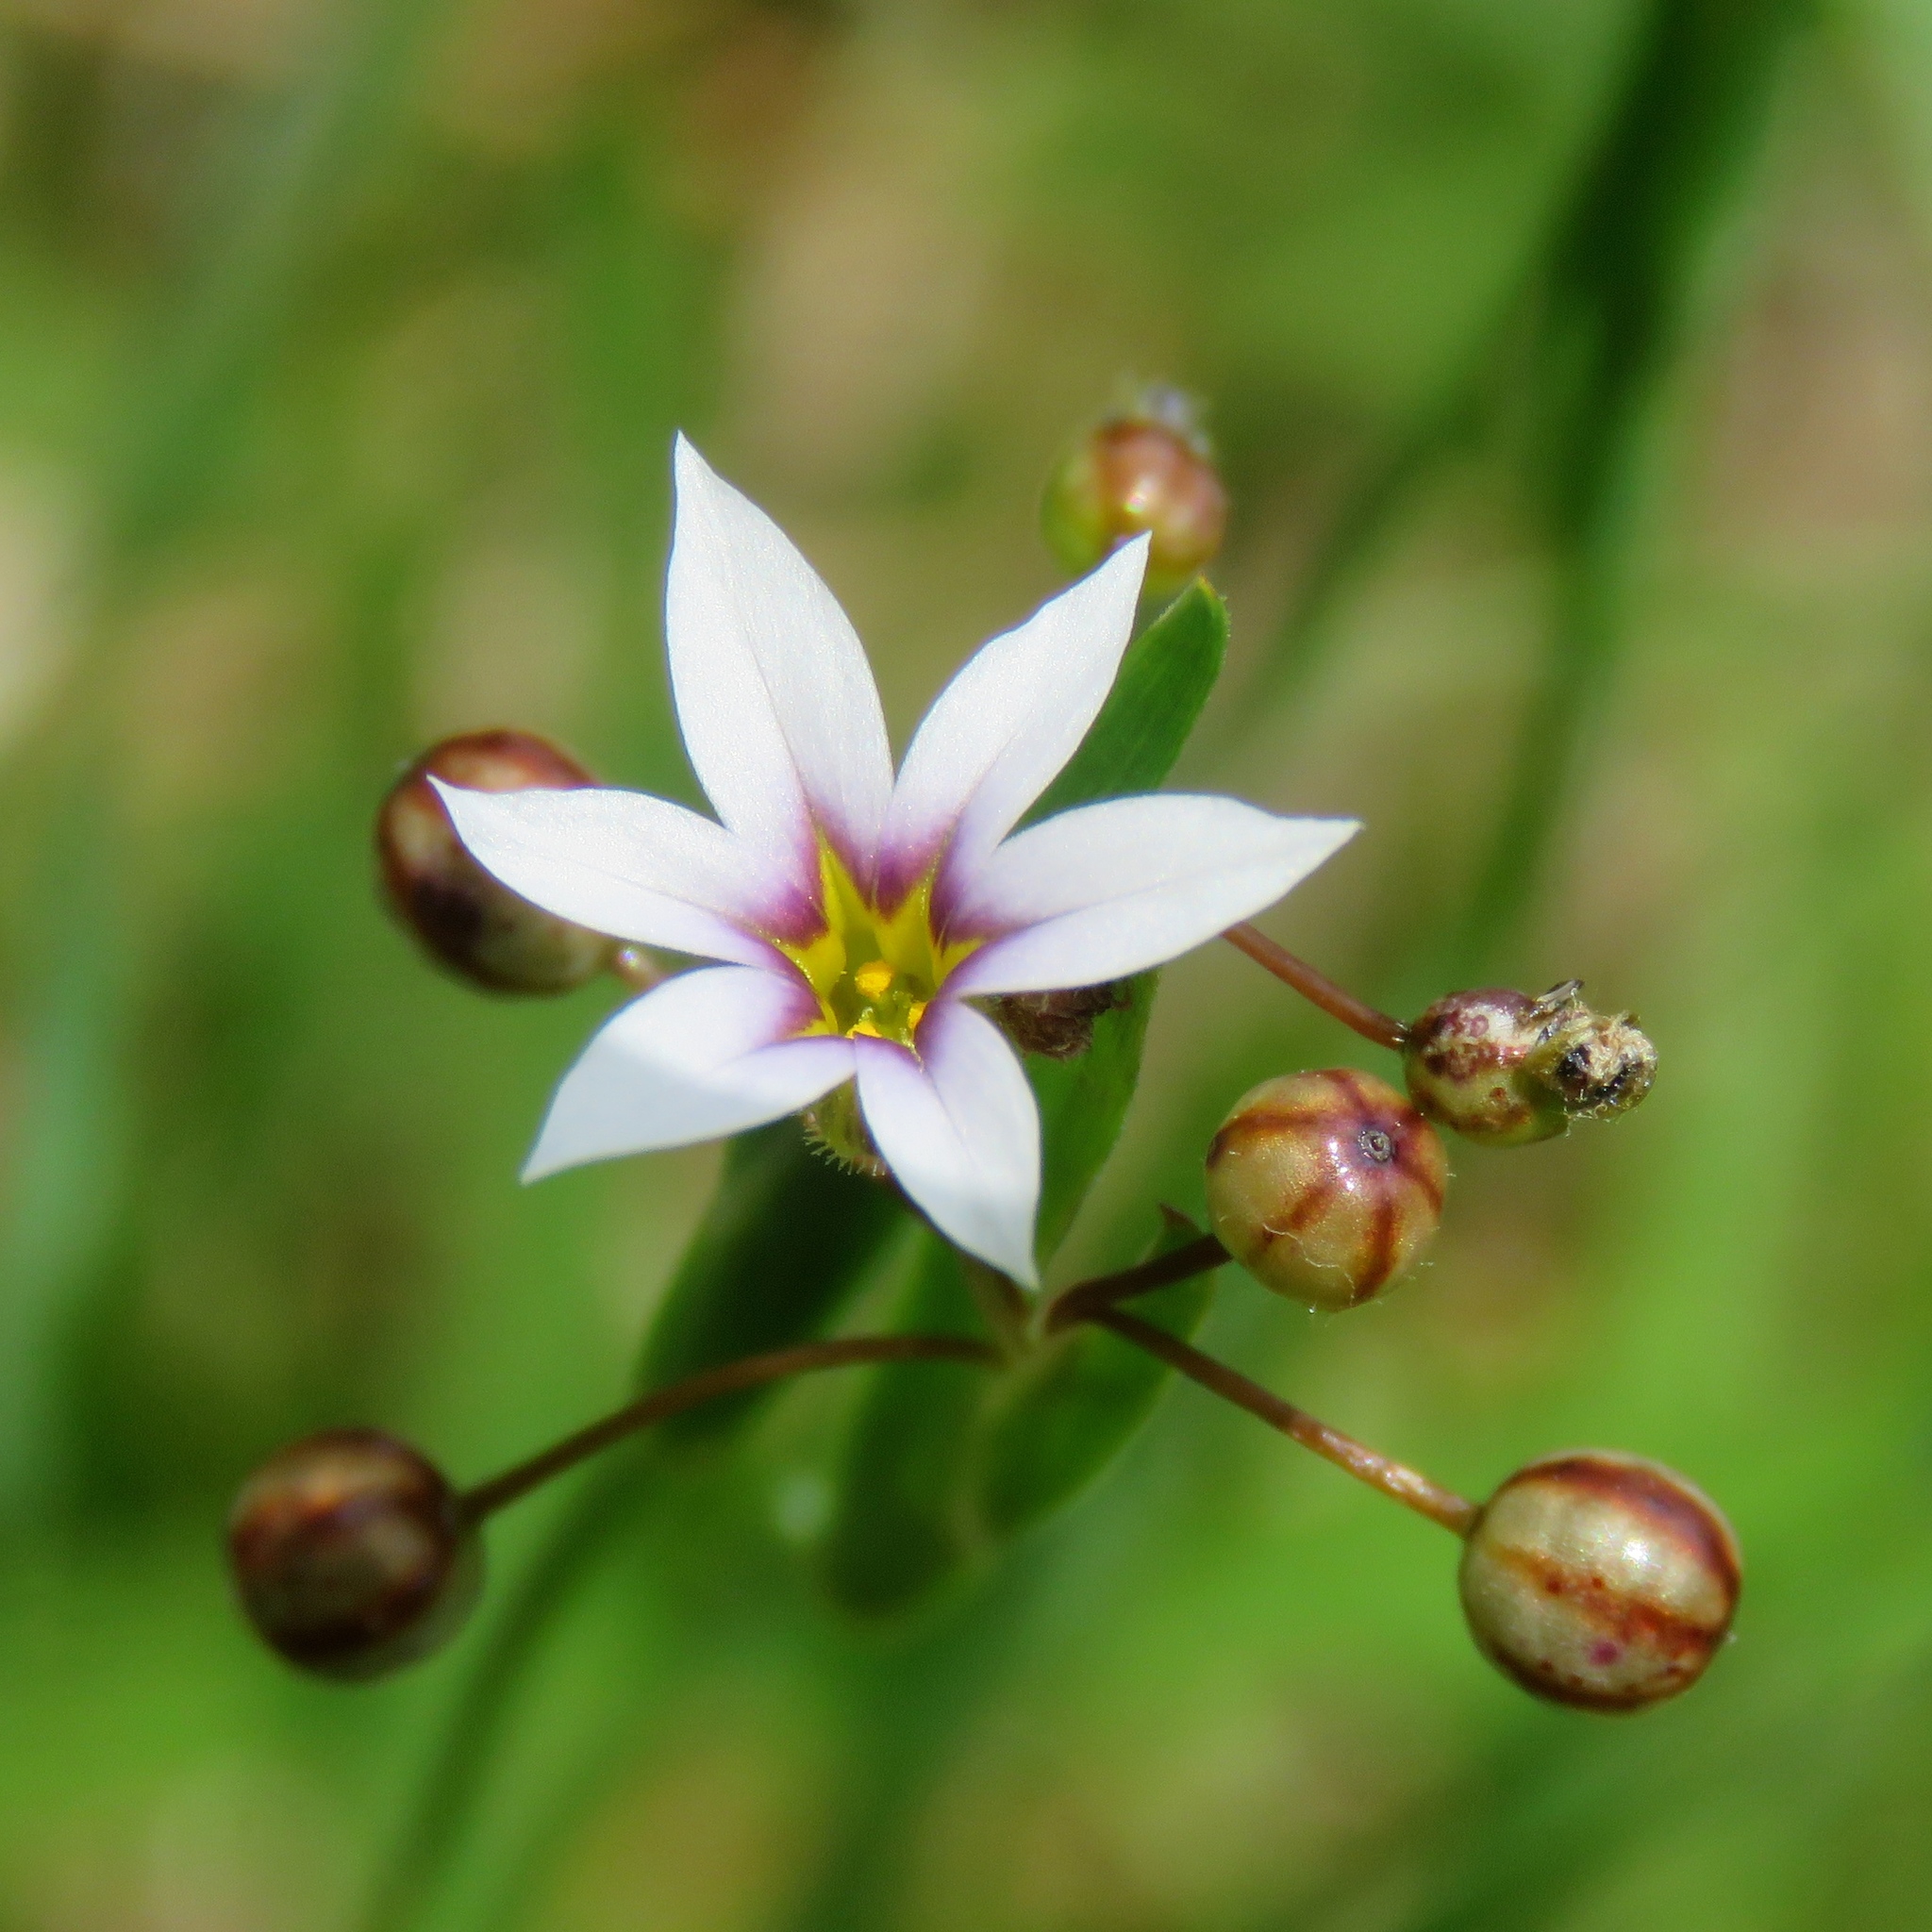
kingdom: Plantae
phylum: Tracheophyta
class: Liliopsida
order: Asparagales
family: Iridaceae
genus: Sisyrinchium
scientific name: Sisyrinchium micranthum
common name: Bermuda pigroot
